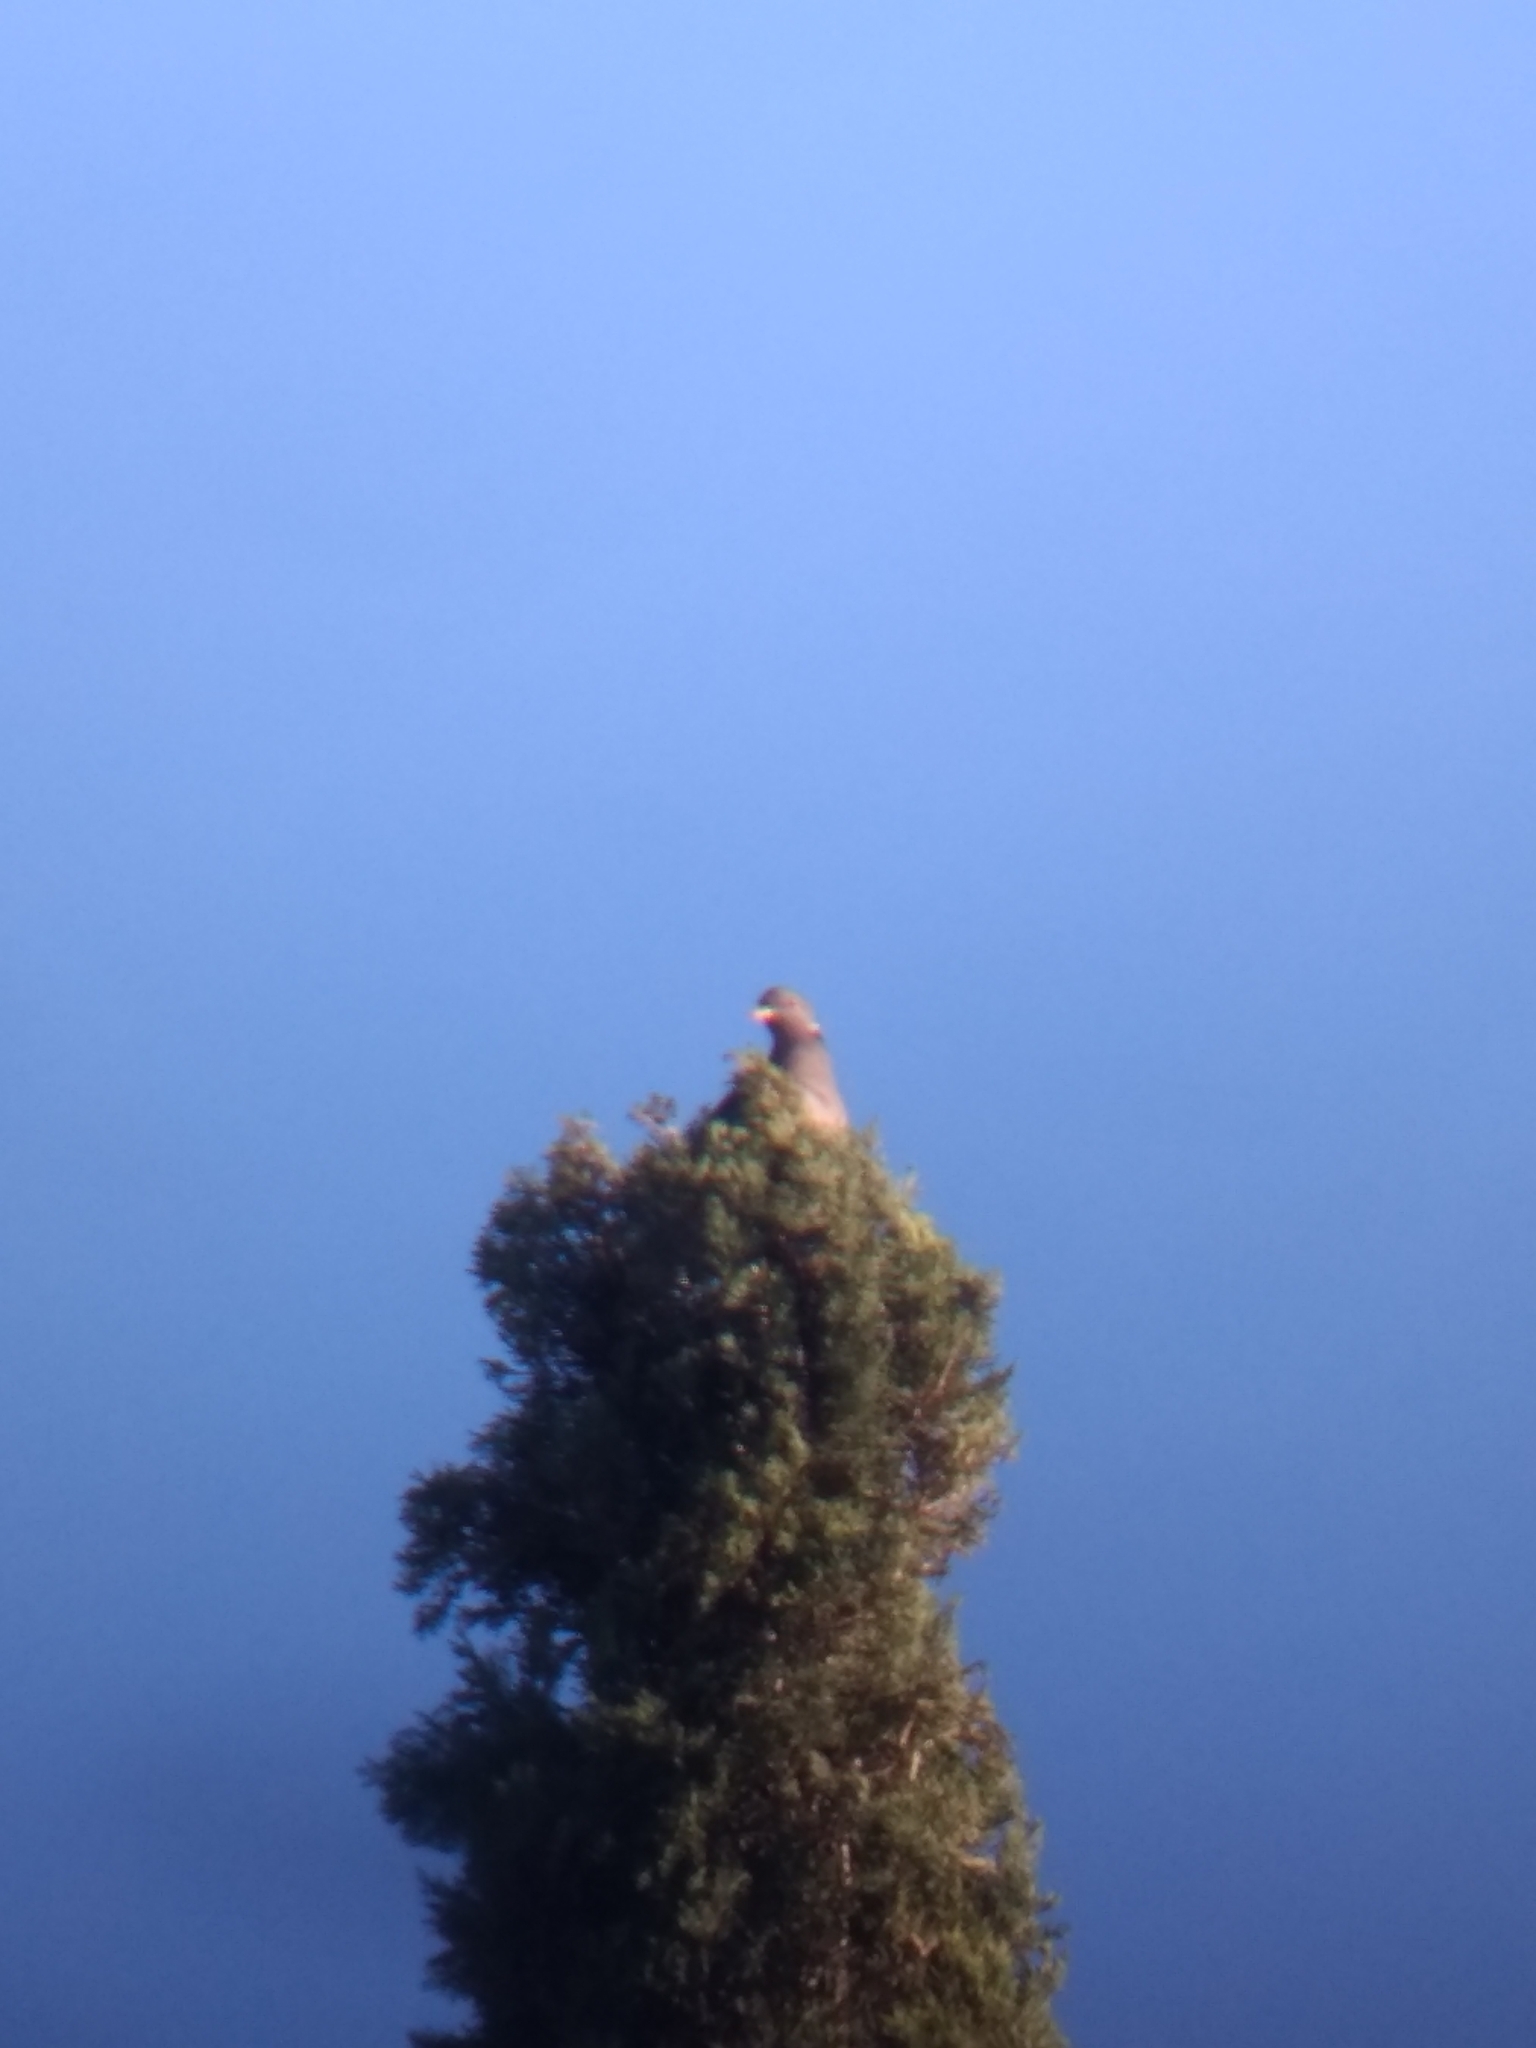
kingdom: Animalia
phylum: Chordata
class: Aves
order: Columbiformes
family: Columbidae
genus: Patagioenas
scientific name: Patagioenas fasciata
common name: Band-tailed pigeon
